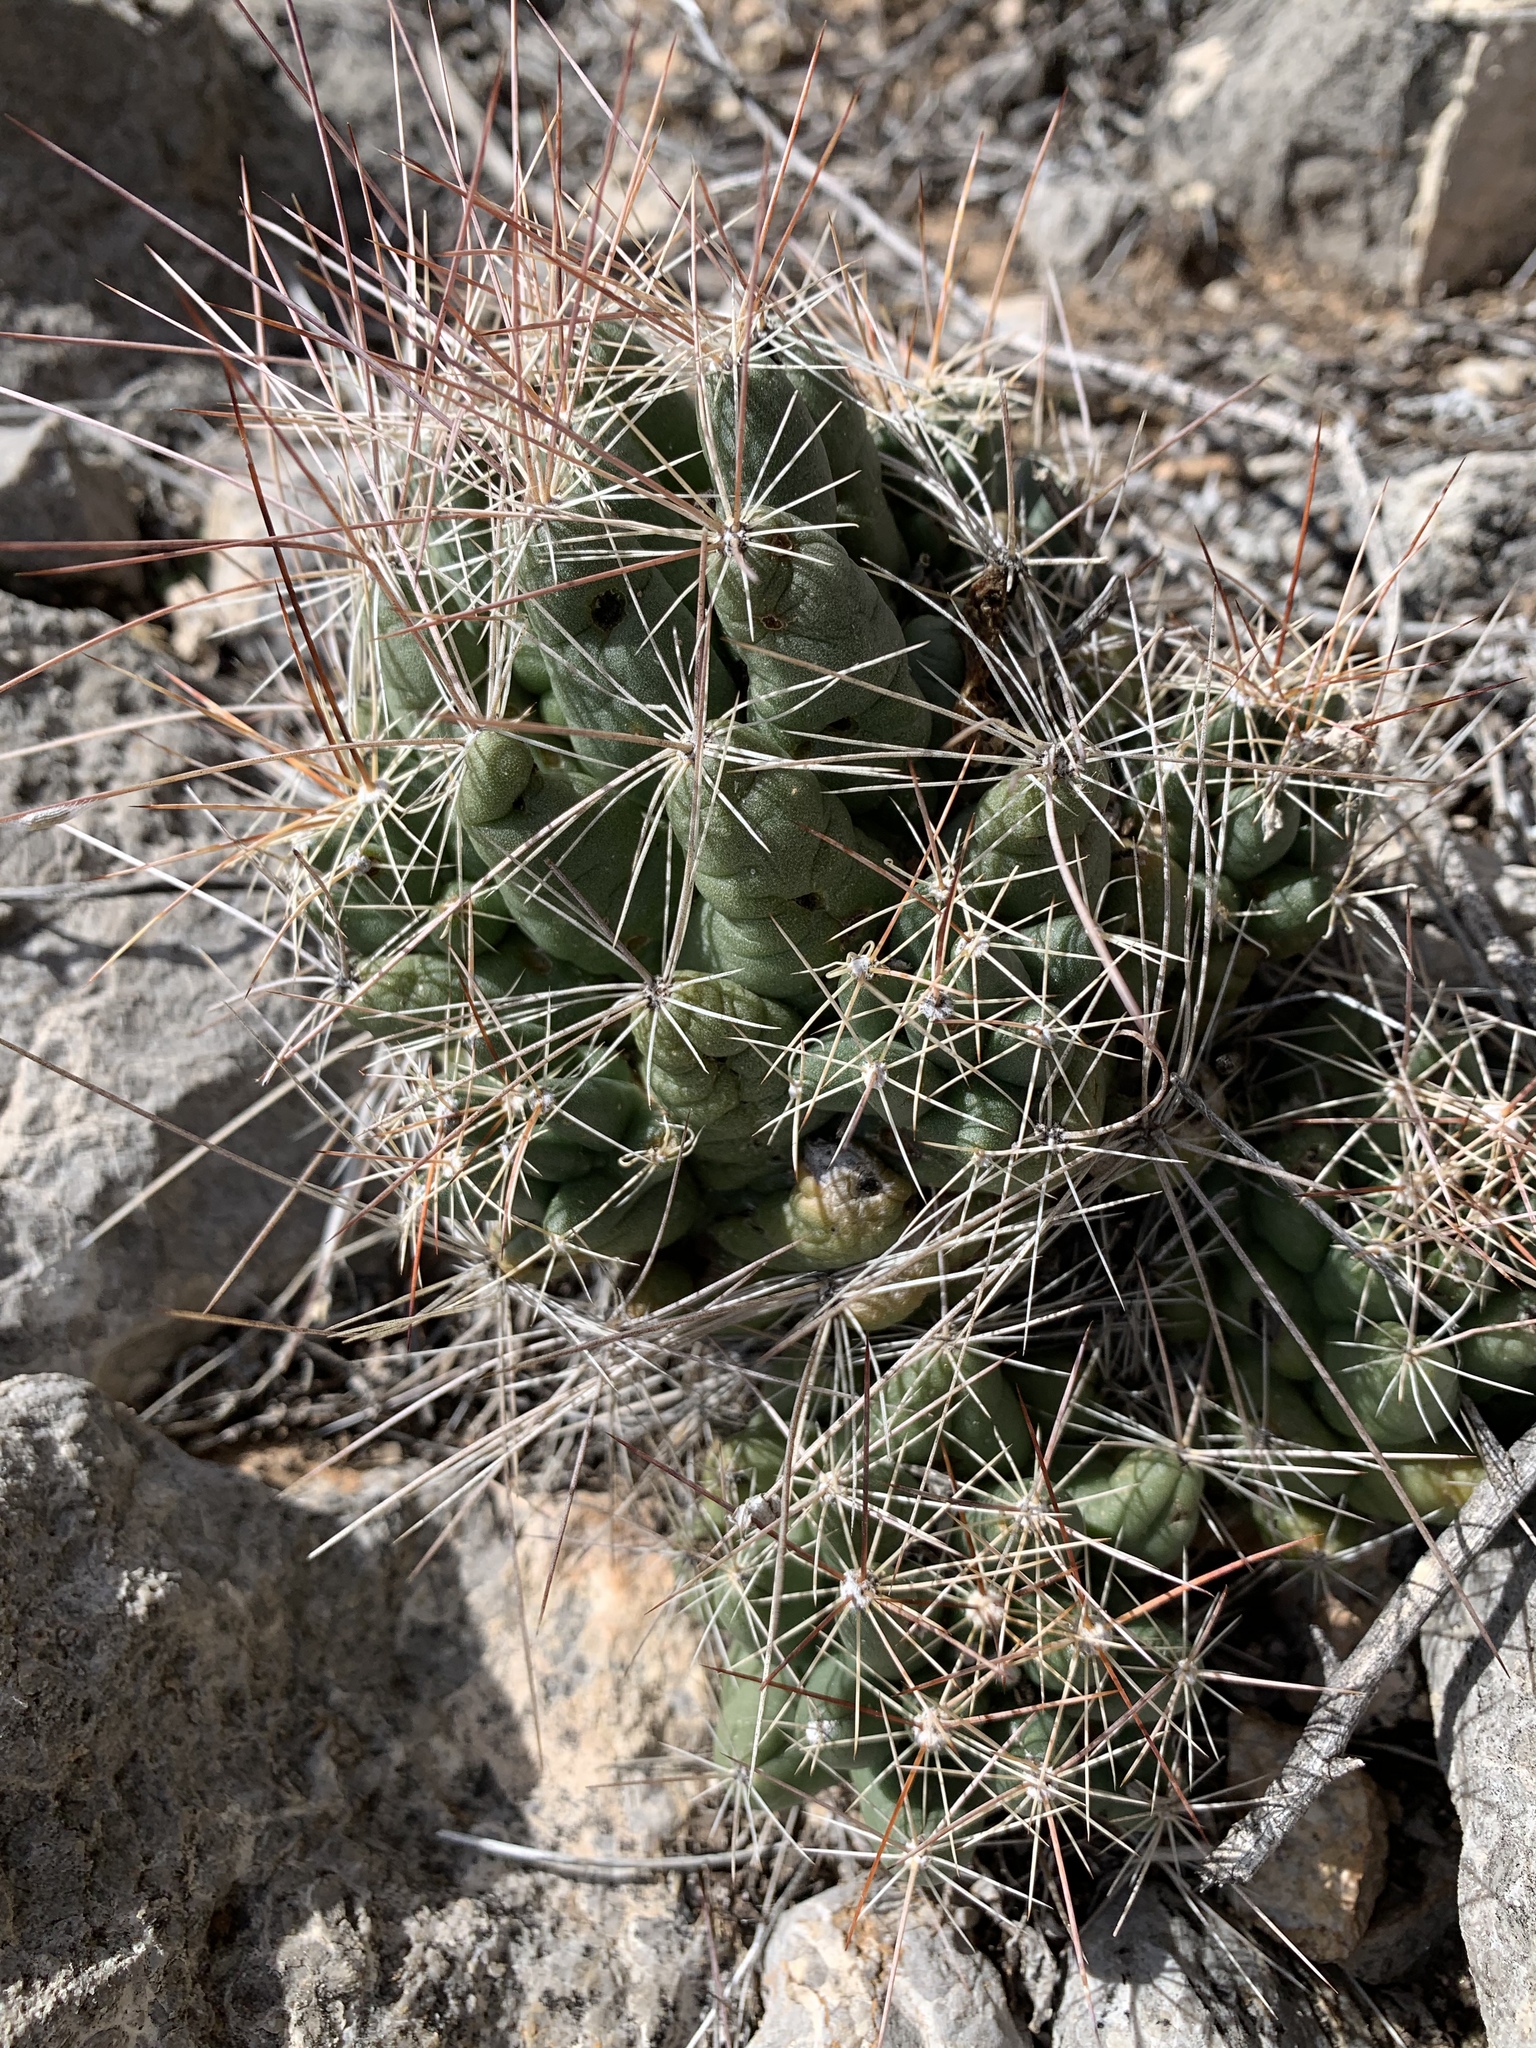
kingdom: Plantae
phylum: Tracheophyta
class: Magnoliopsida
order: Caryophyllales
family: Cactaceae
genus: Coryphantha
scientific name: Coryphantha macromeris
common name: Nipple beehive cactus
